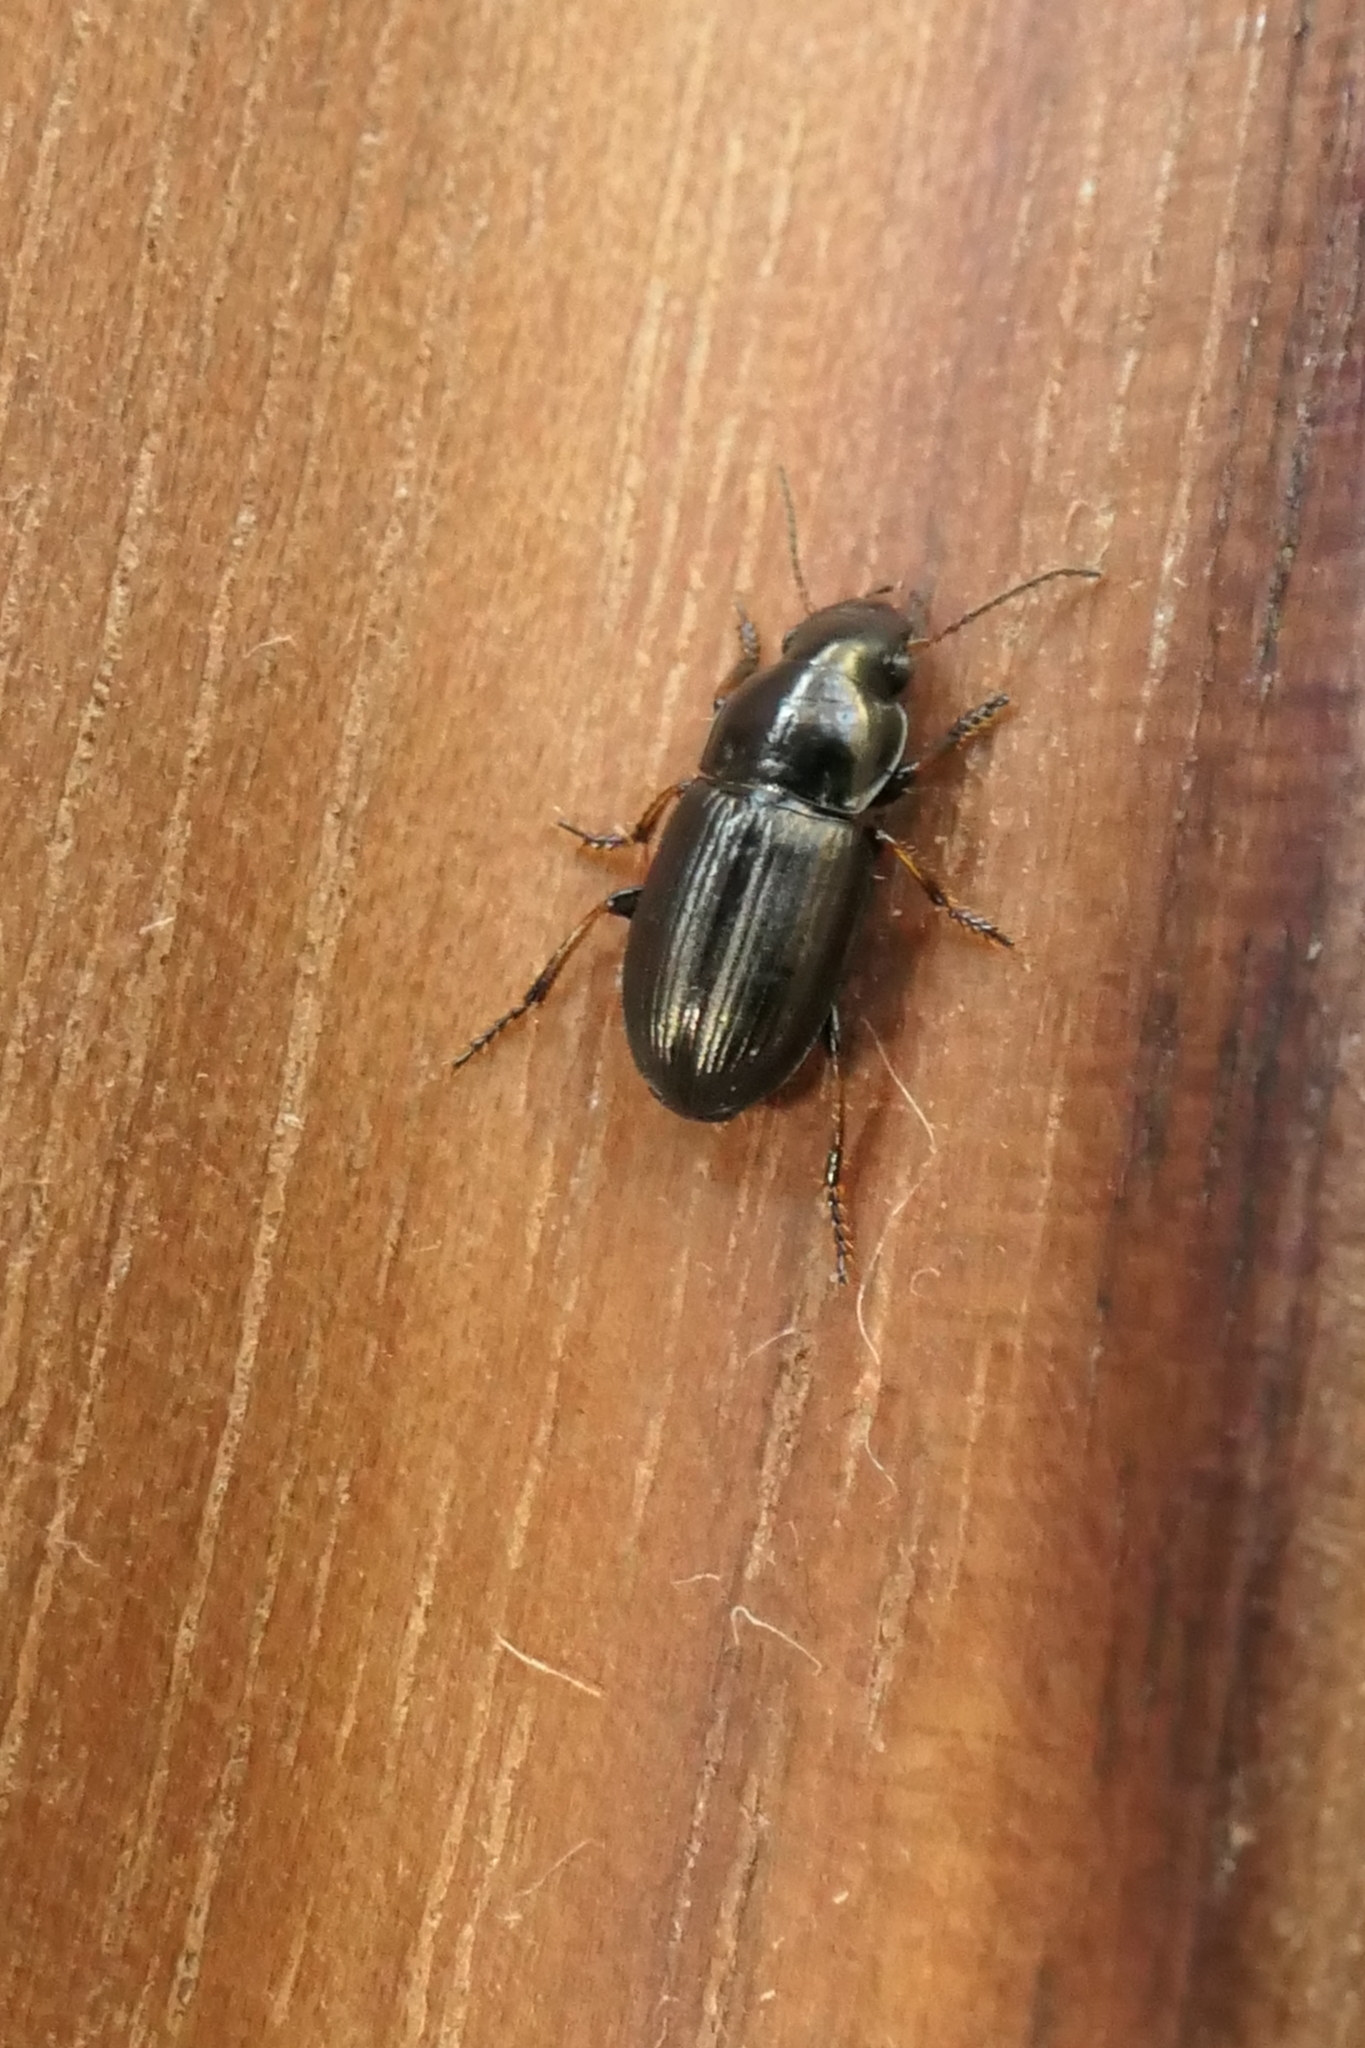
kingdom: Animalia
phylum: Arthropoda
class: Insecta
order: Coleoptera
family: Carabidae
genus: Gnathaphanus
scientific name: Gnathaphanus melbournensis
